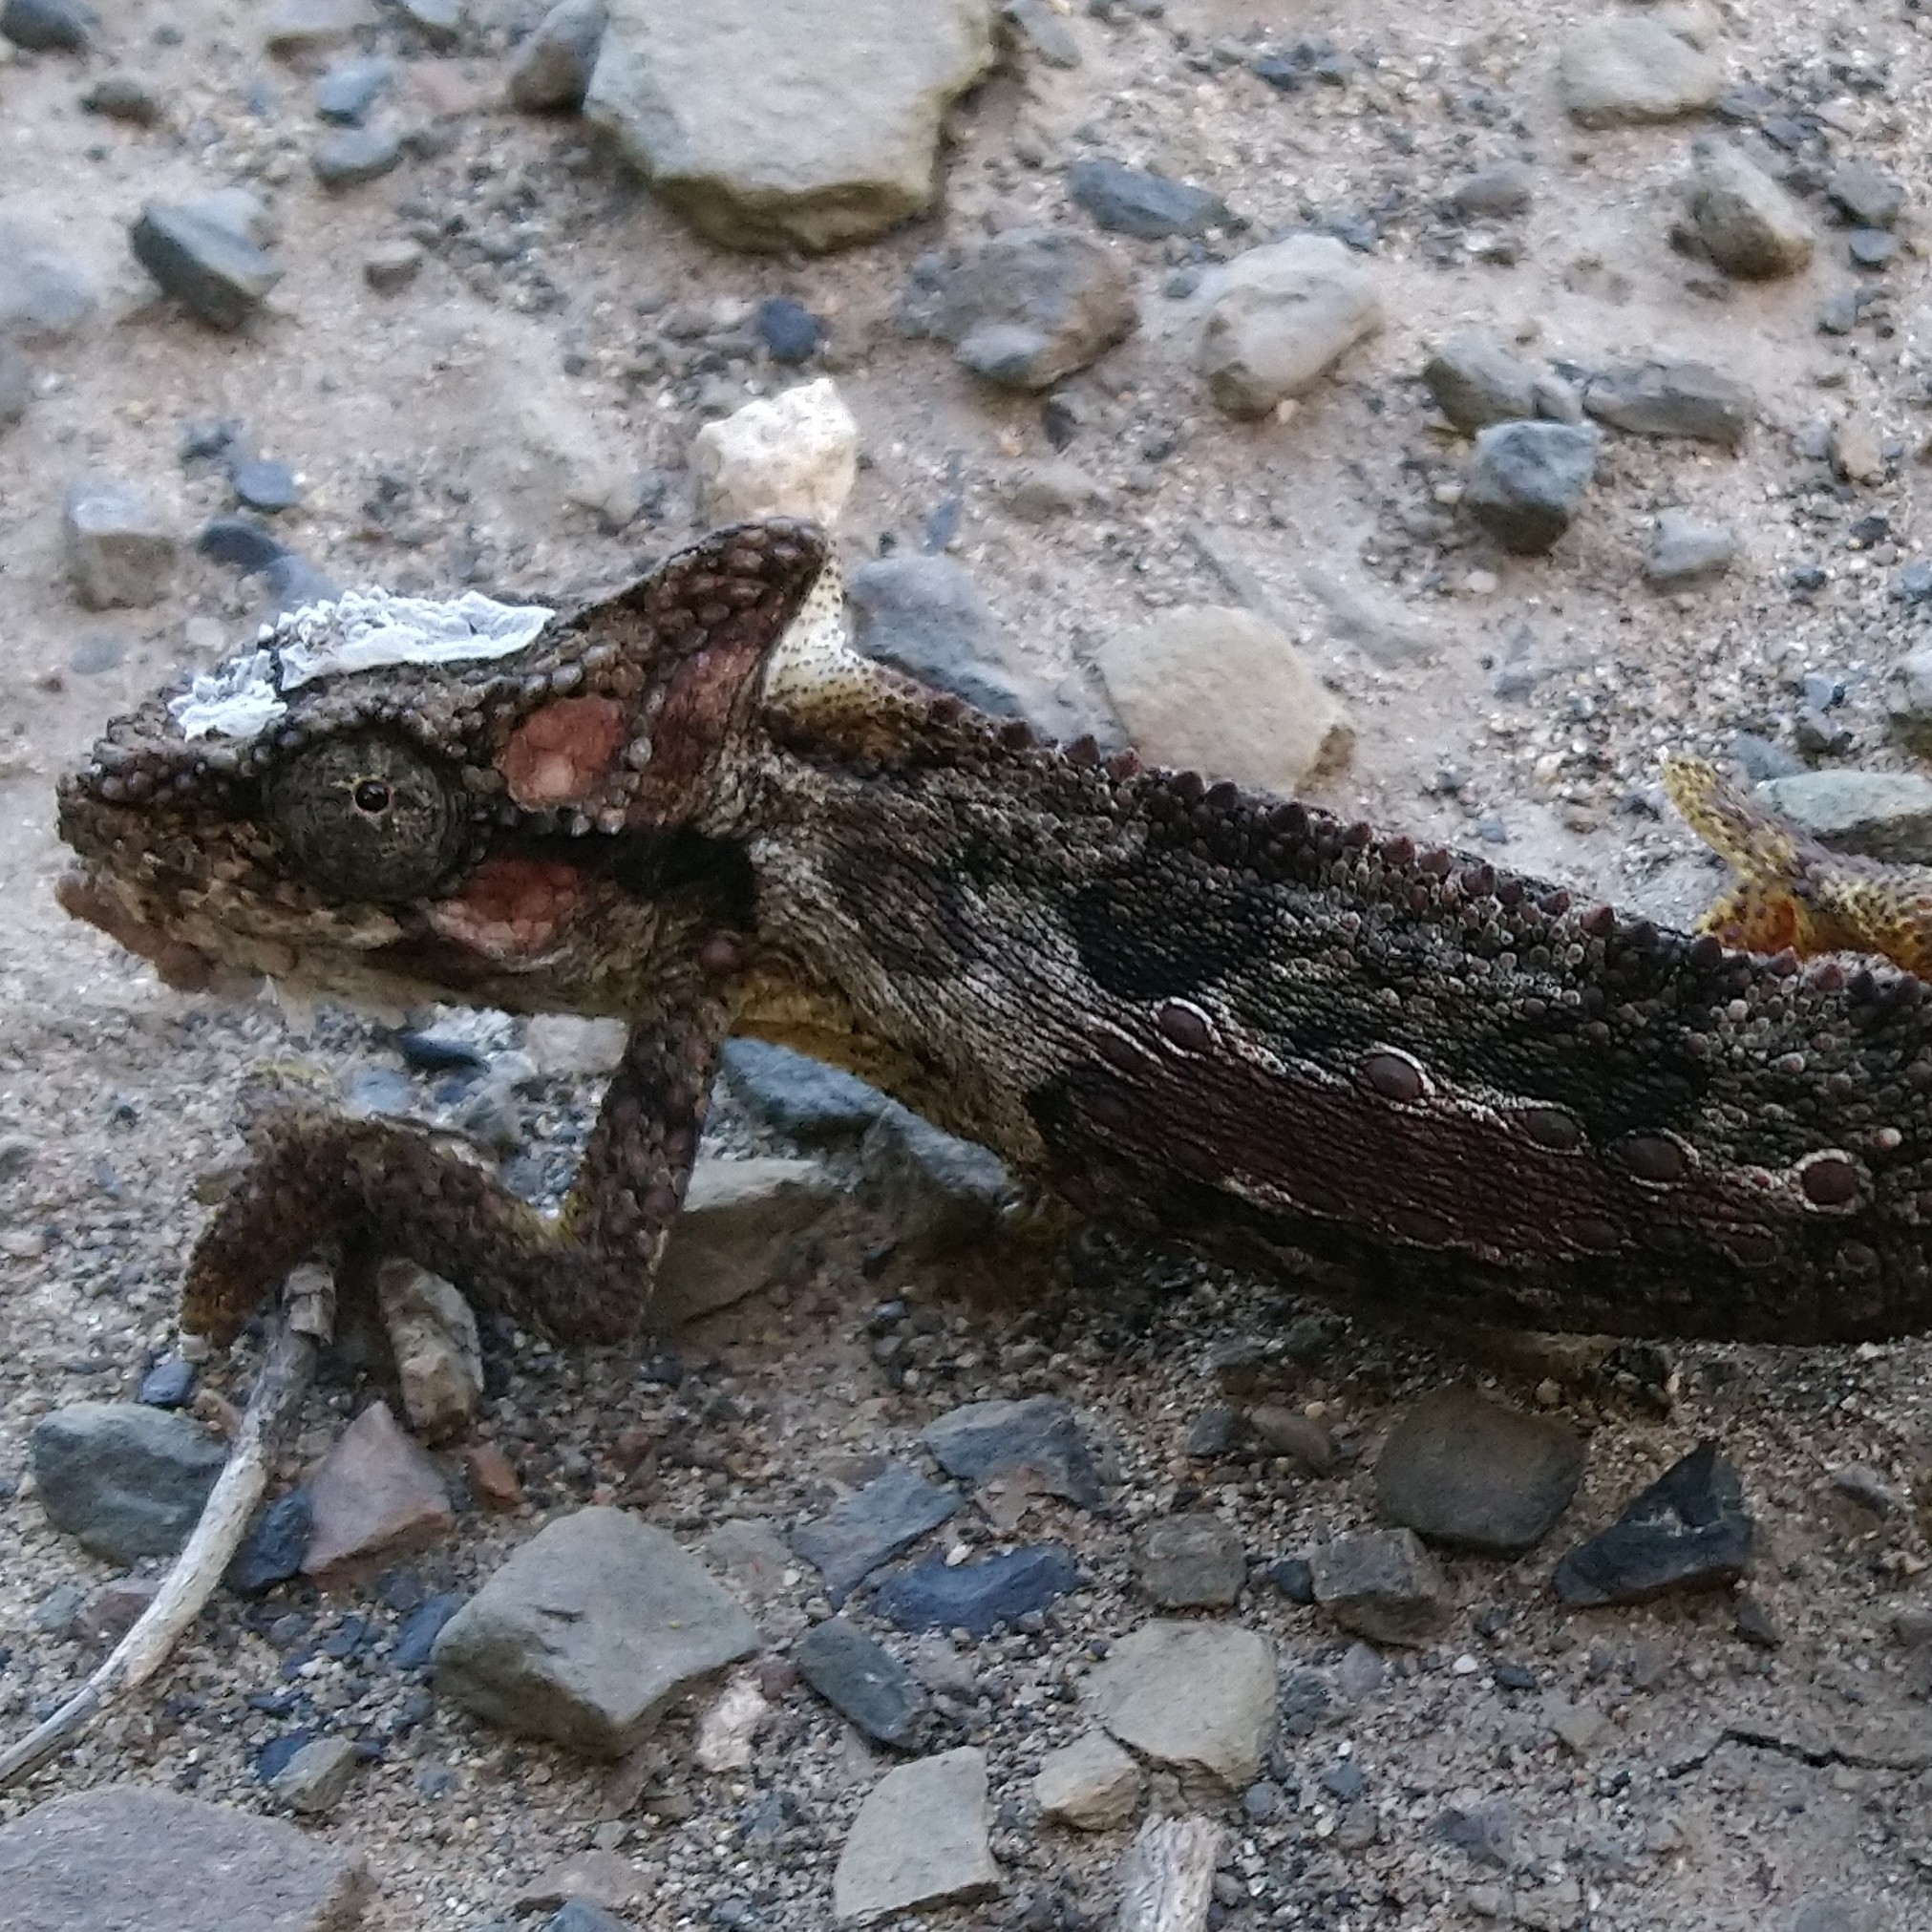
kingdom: Animalia
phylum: Chordata
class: Squamata
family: Chamaeleonidae
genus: Bradypodion
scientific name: Bradypodion ventrale
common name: Eastern cape dwarf chameleon
